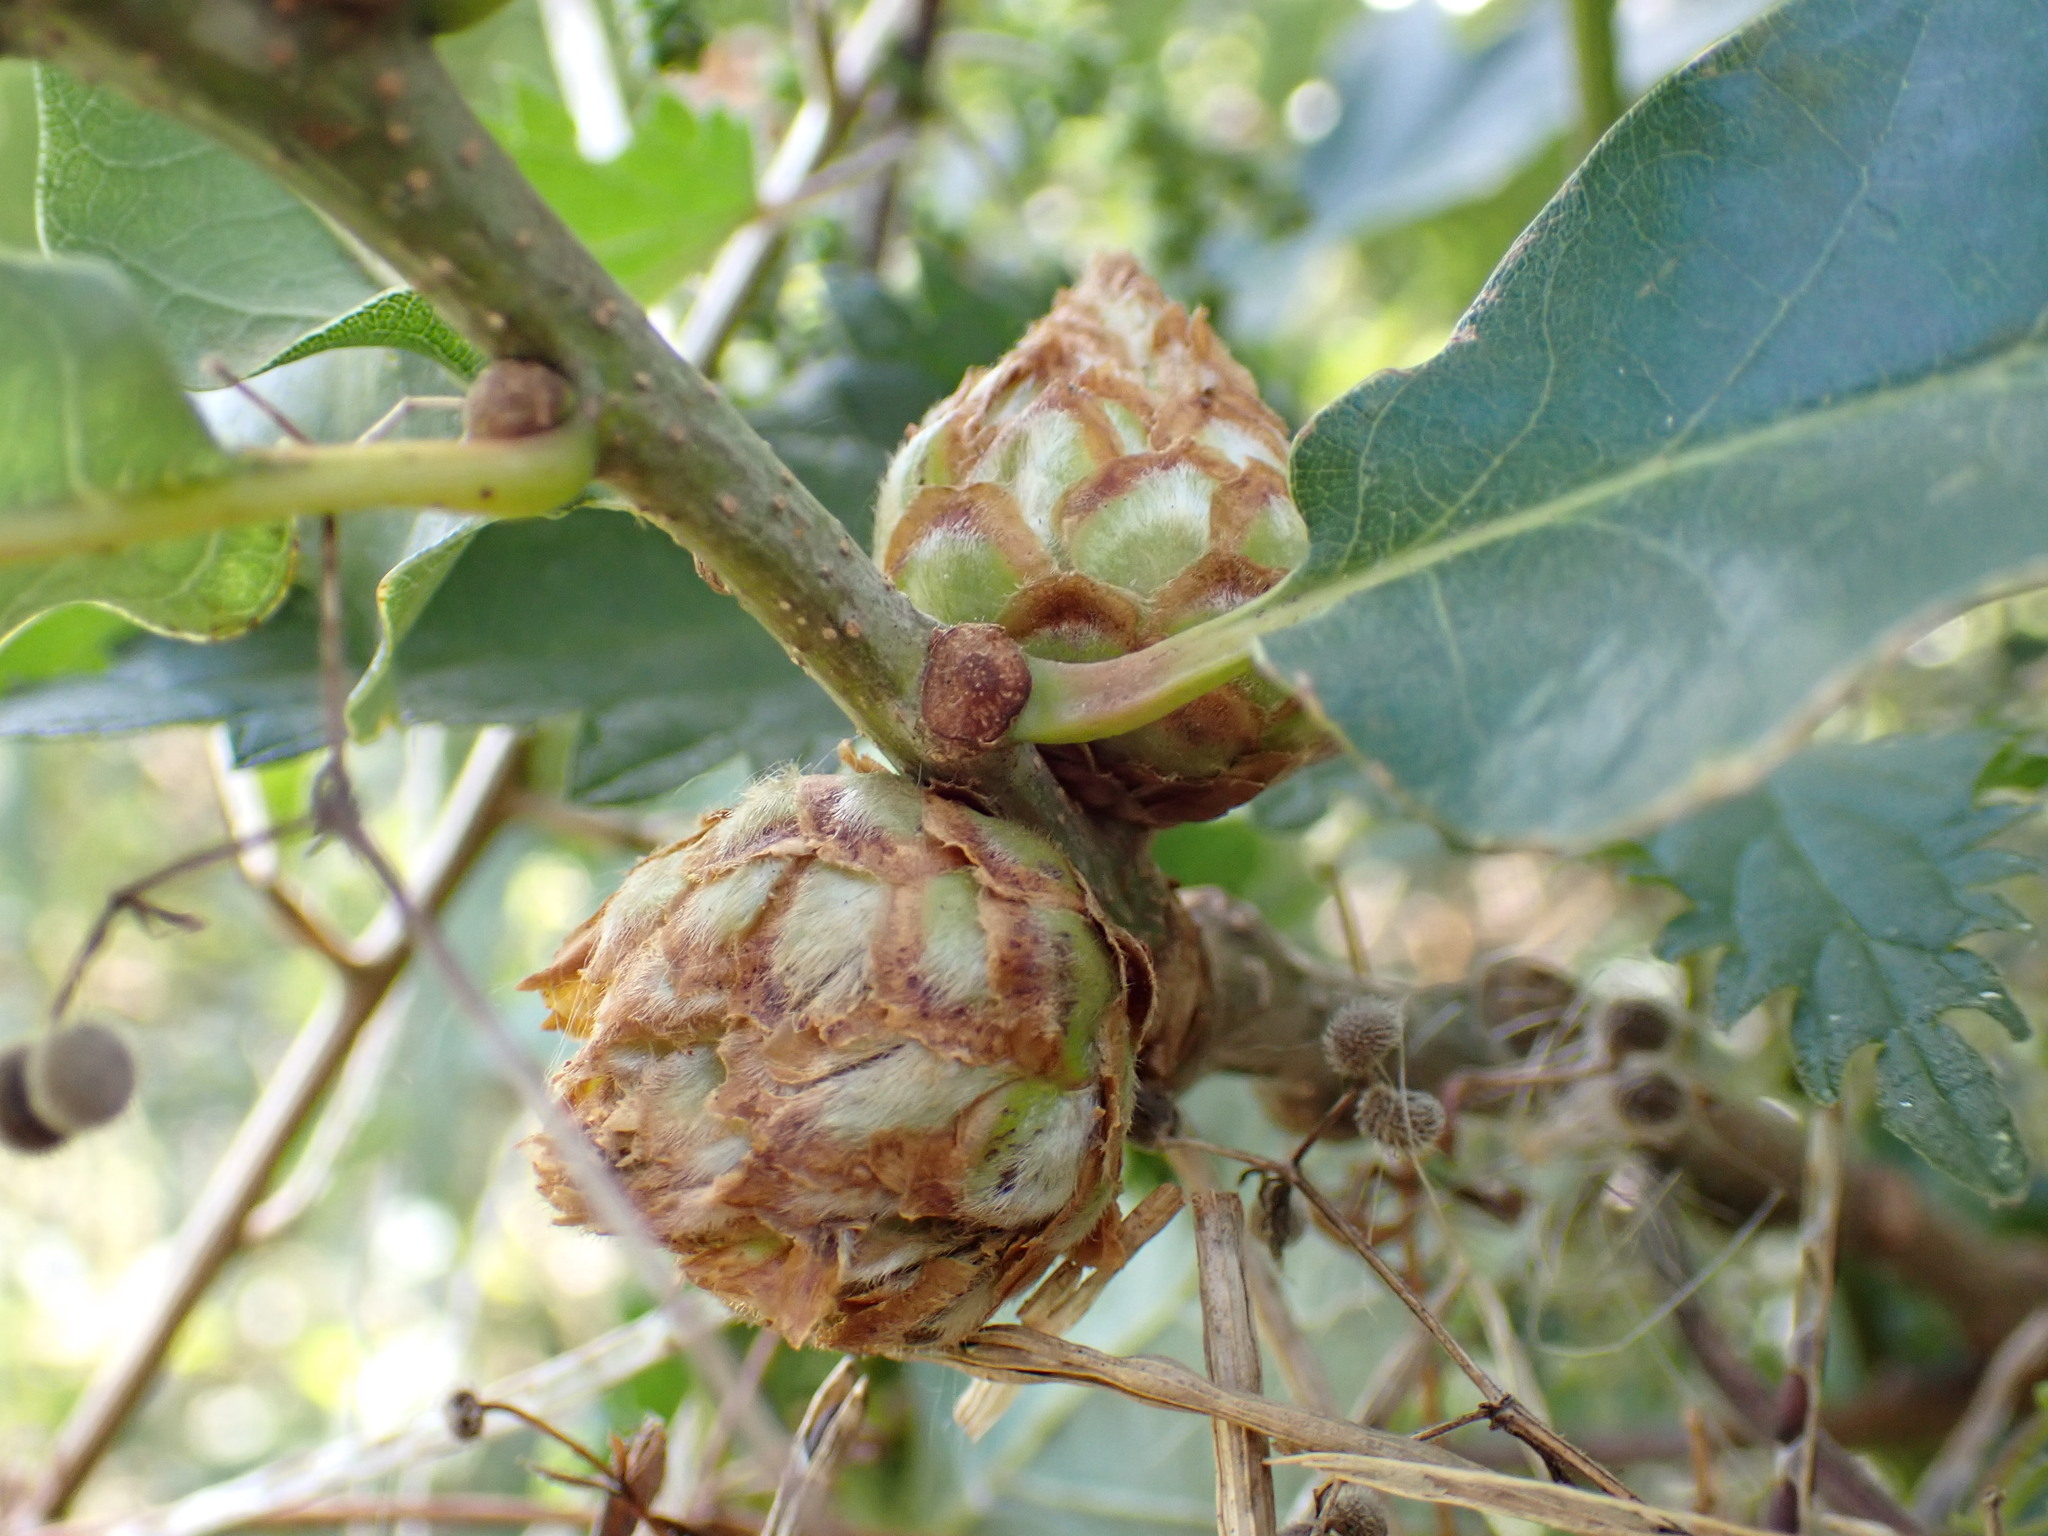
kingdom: Animalia
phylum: Arthropoda
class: Insecta
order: Hymenoptera
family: Cynipidae
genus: Andricus
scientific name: Andricus foecundatrix
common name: Artichoke gall
